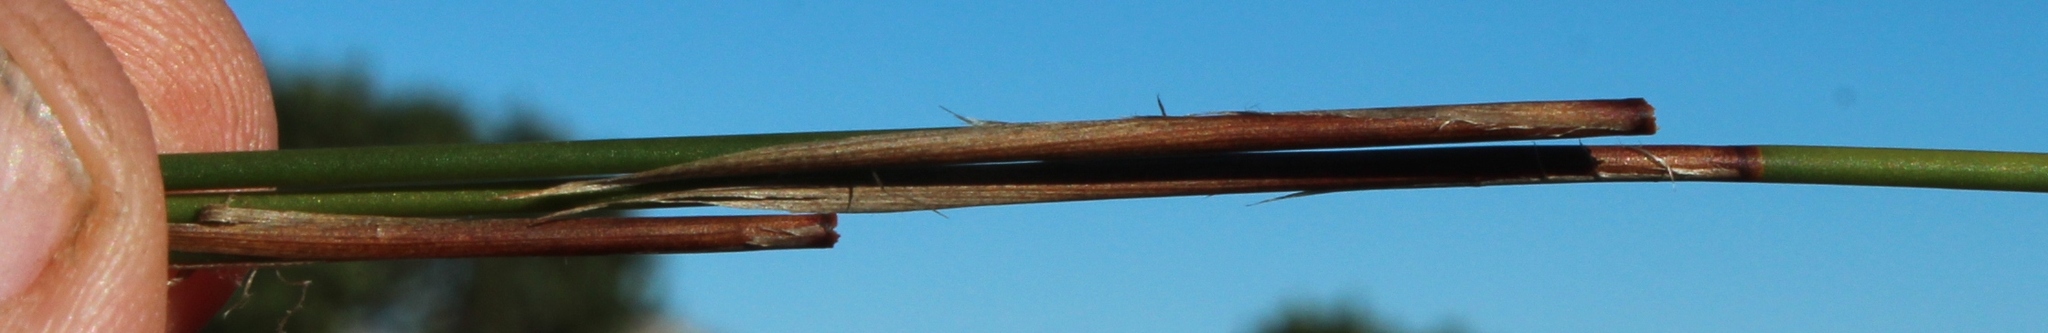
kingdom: Plantae
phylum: Tracheophyta
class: Liliopsida
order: Poales
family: Restionaceae
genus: Thamnochortus
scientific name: Thamnochortus lucens
